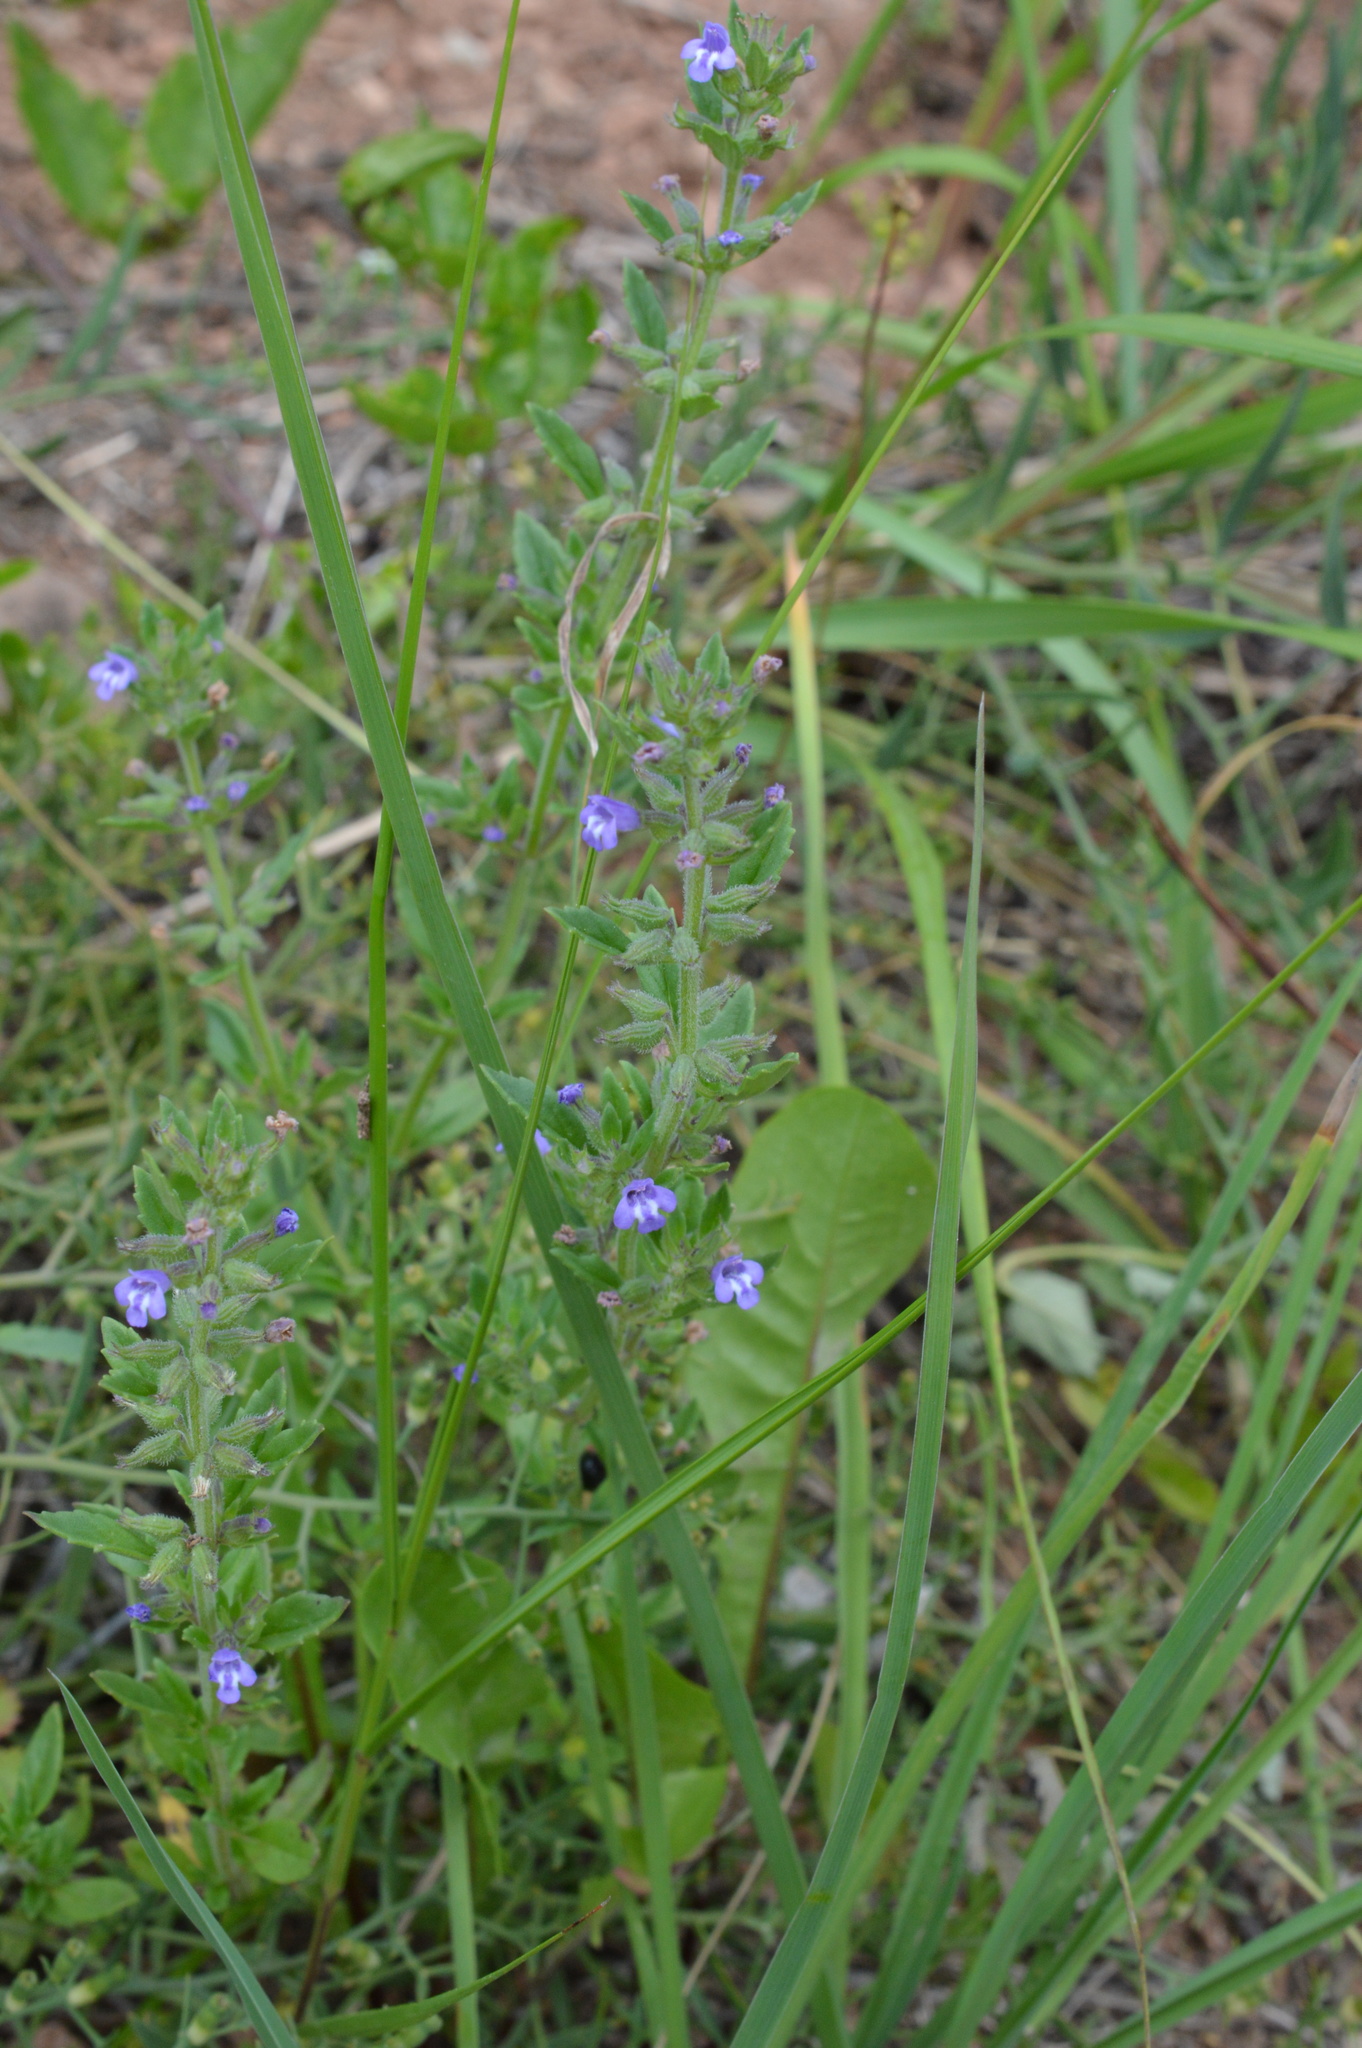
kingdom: Plantae
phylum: Tracheophyta
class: Magnoliopsida
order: Lamiales
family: Lamiaceae
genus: Clinopodium
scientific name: Clinopodium acinos
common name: Basil thyme
